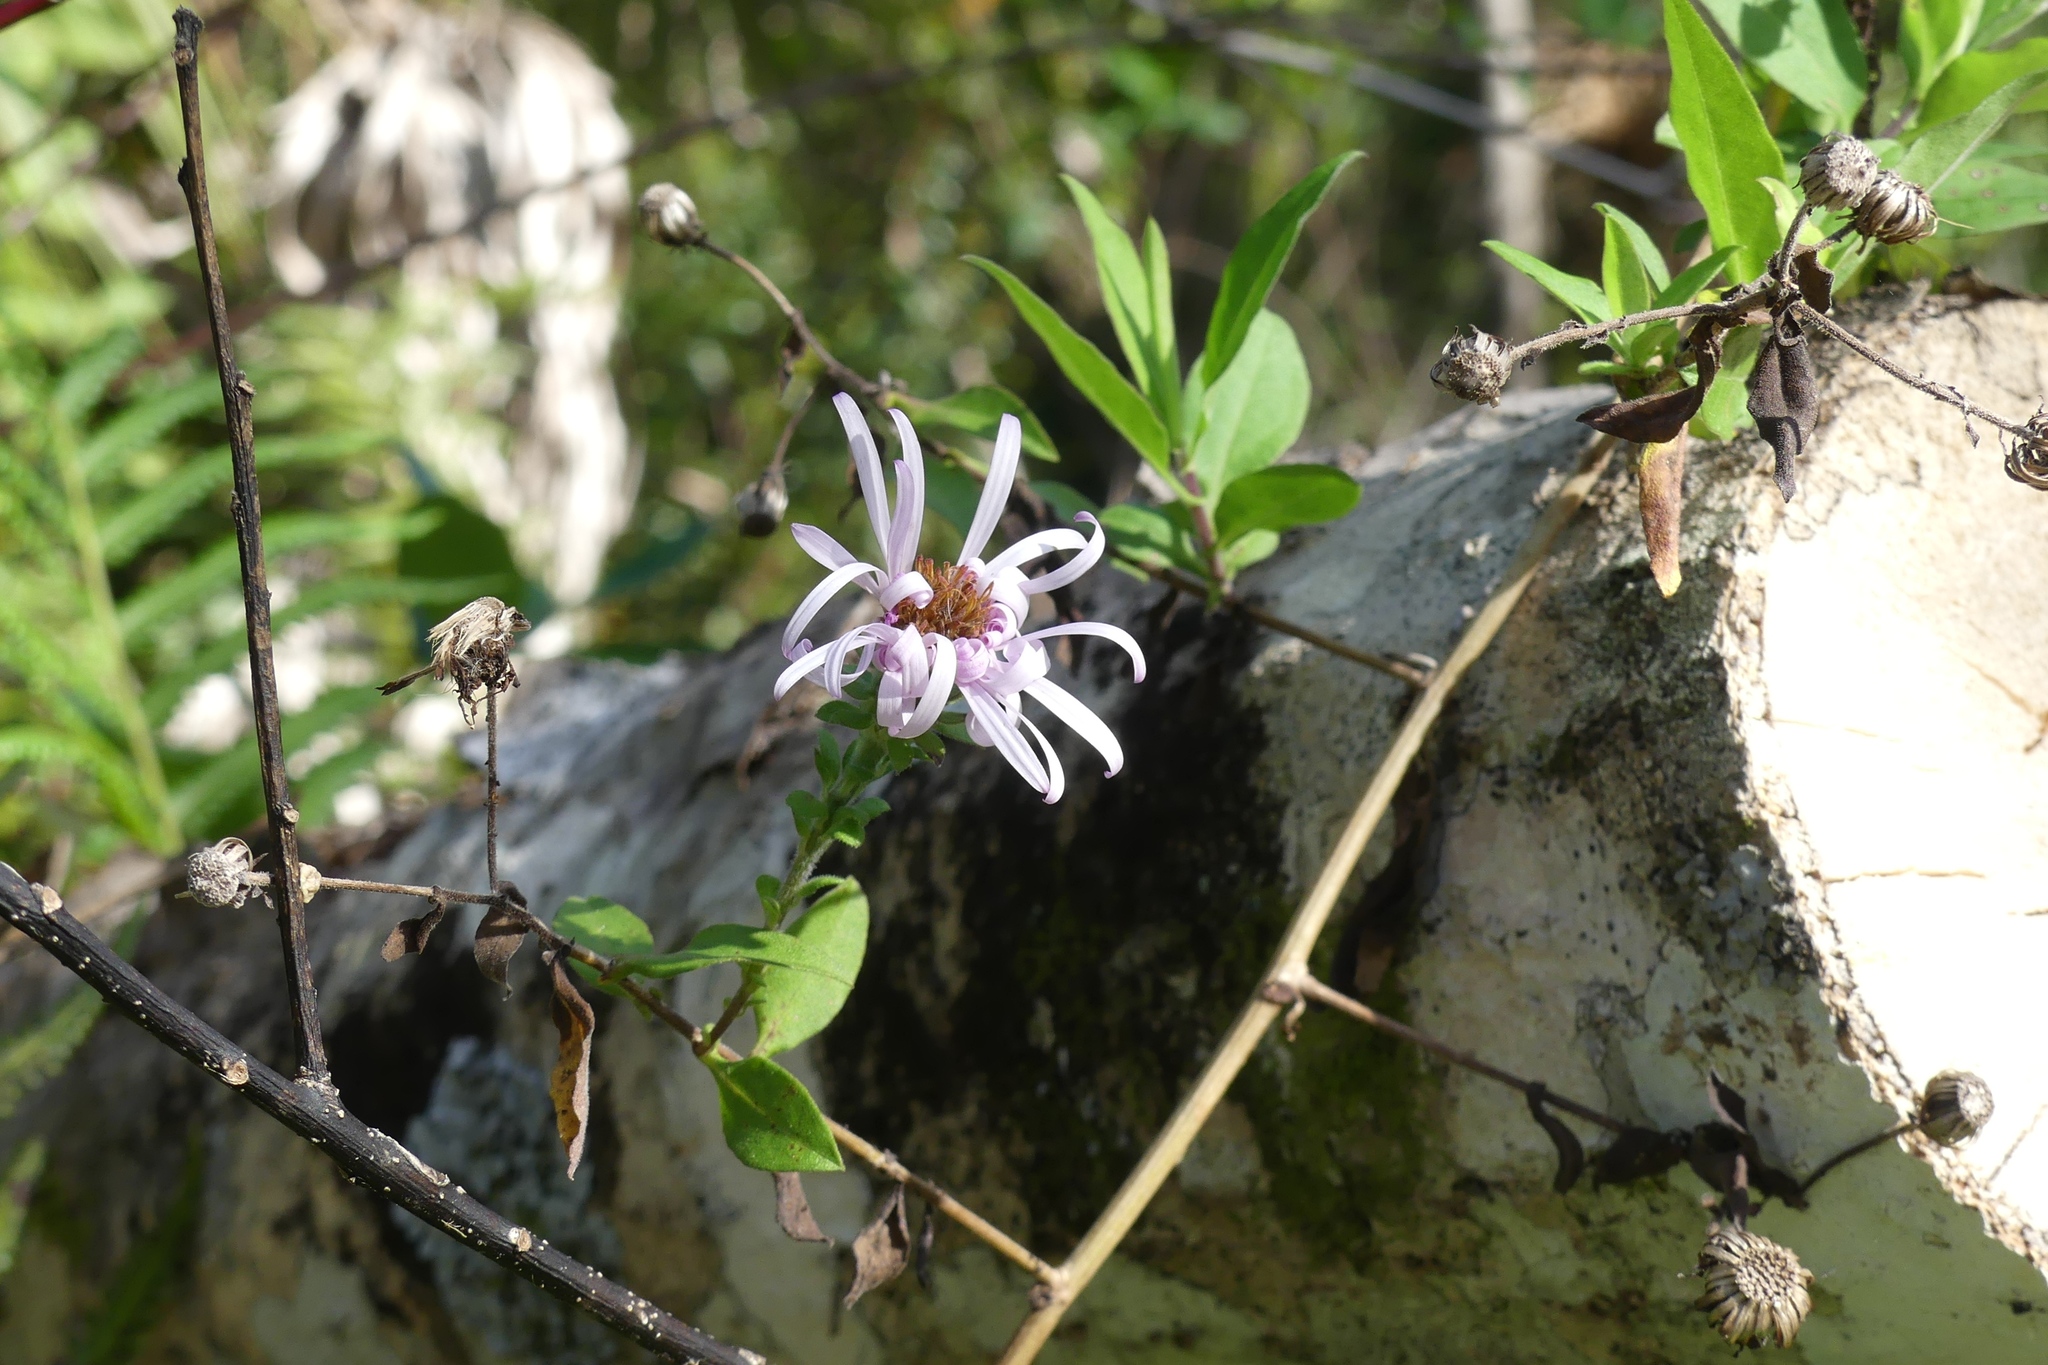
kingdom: Plantae
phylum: Tracheophyta
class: Magnoliopsida
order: Asterales
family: Asteraceae
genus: Ampelaster
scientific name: Ampelaster carolinianus
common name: Climbing aster
